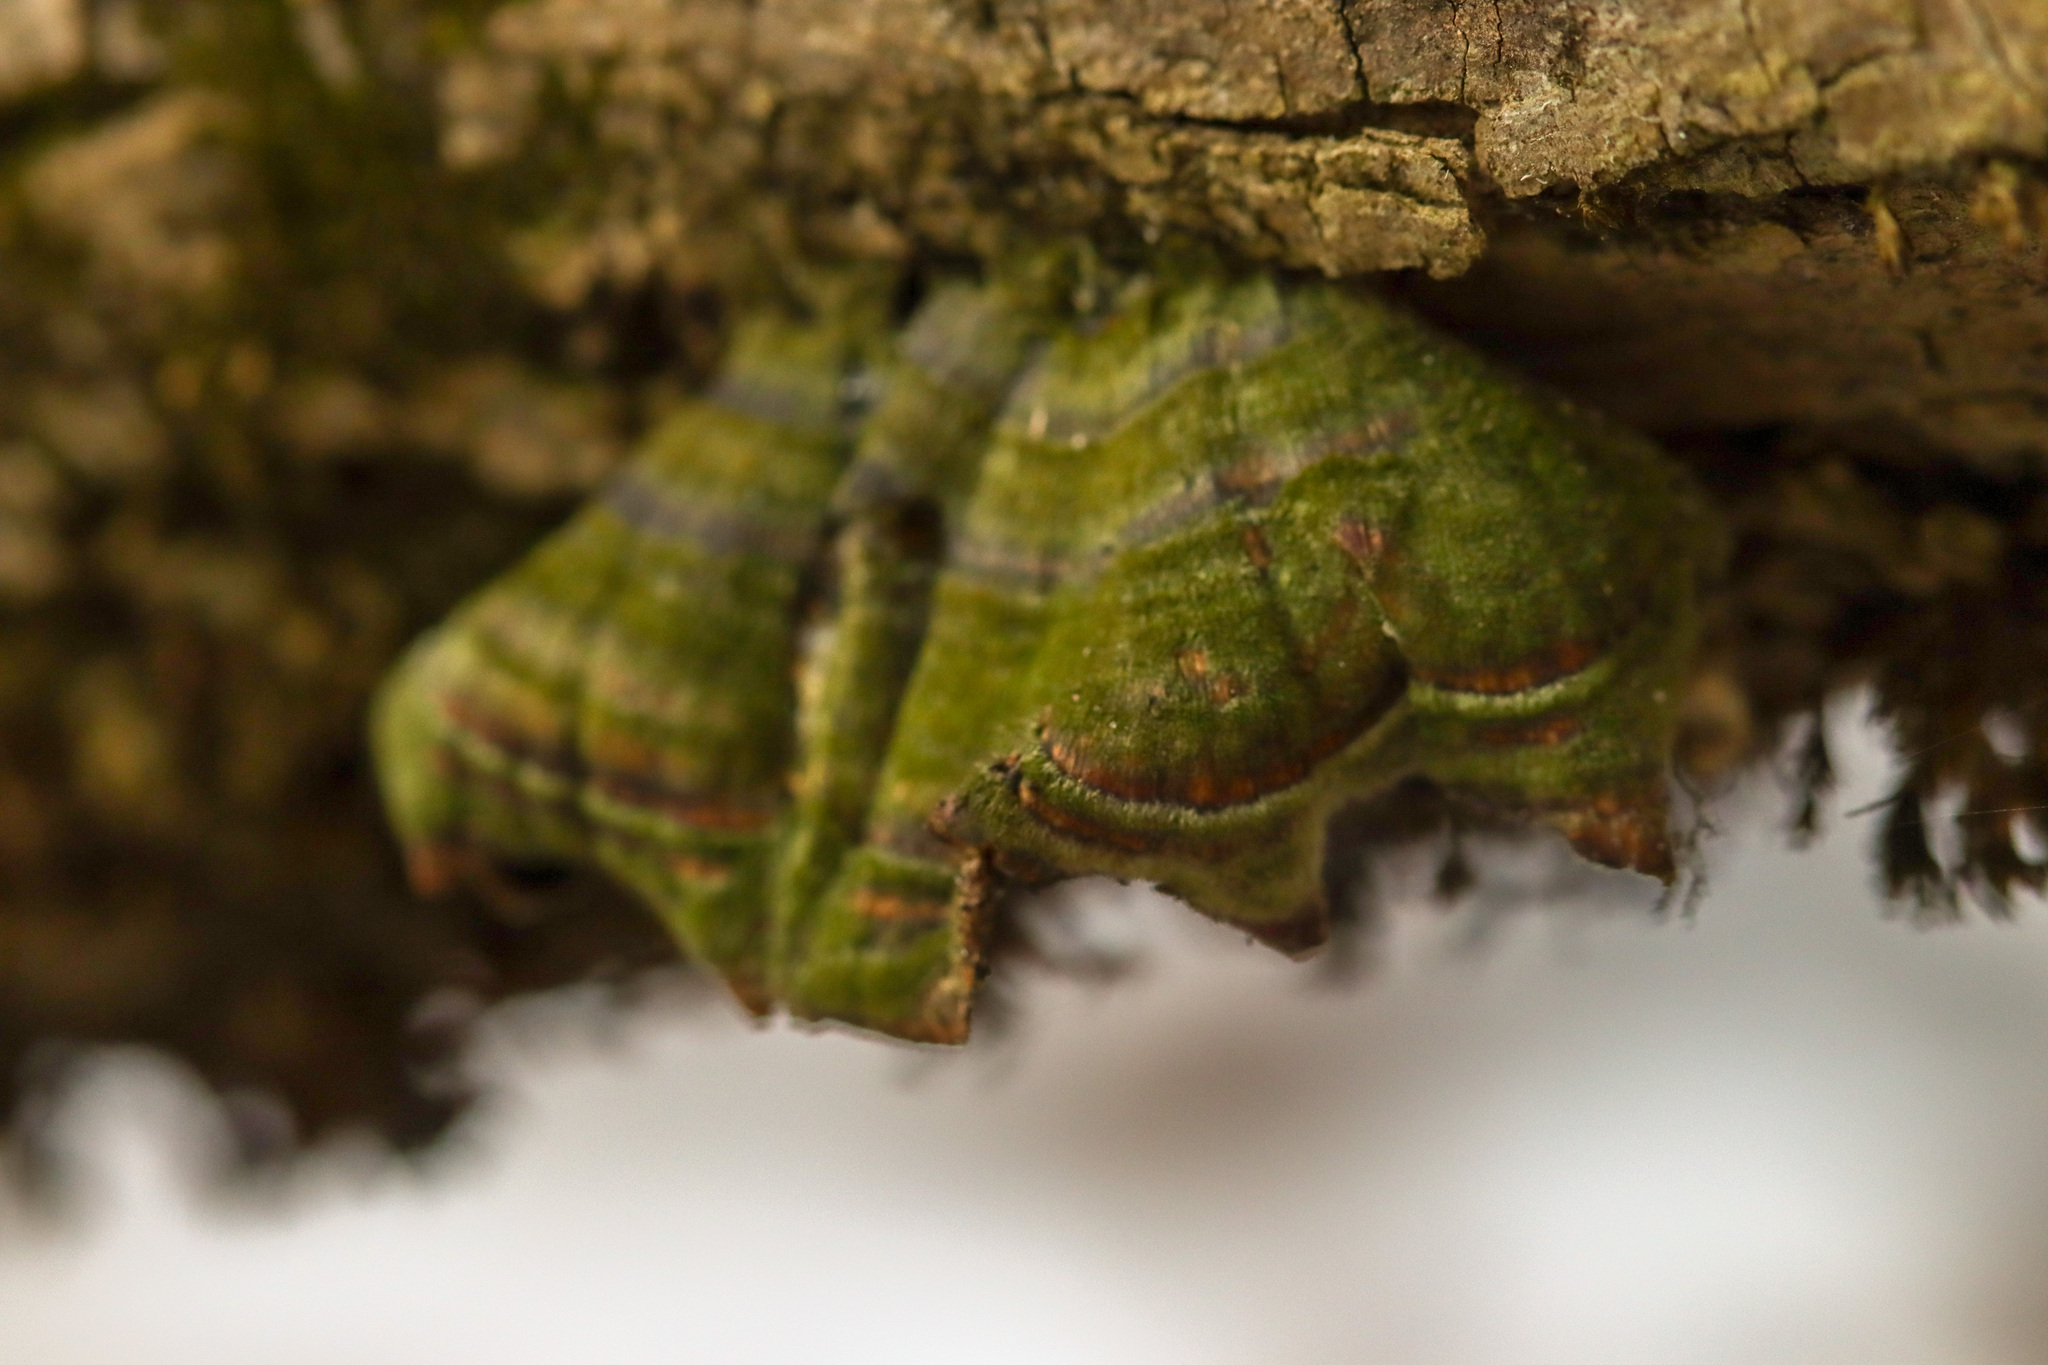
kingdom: Fungi
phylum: Basidiomycota
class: Agaricomycetes
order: Polyporales
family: Polyporaceae
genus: Trametes
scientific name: Trametes versicolor
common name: Turkeytail
